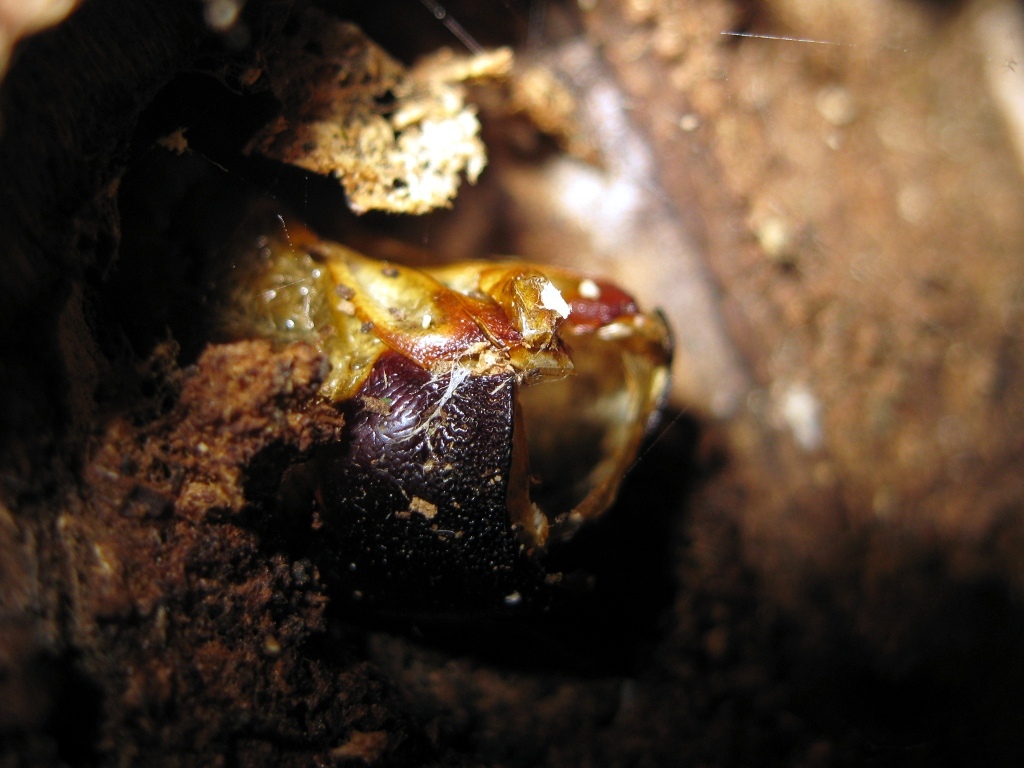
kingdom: Animalia
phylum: Arthropoda
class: Insecta
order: Lepidoptera
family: Hepialidae
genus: Aenetus
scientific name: Aenetus virescens
